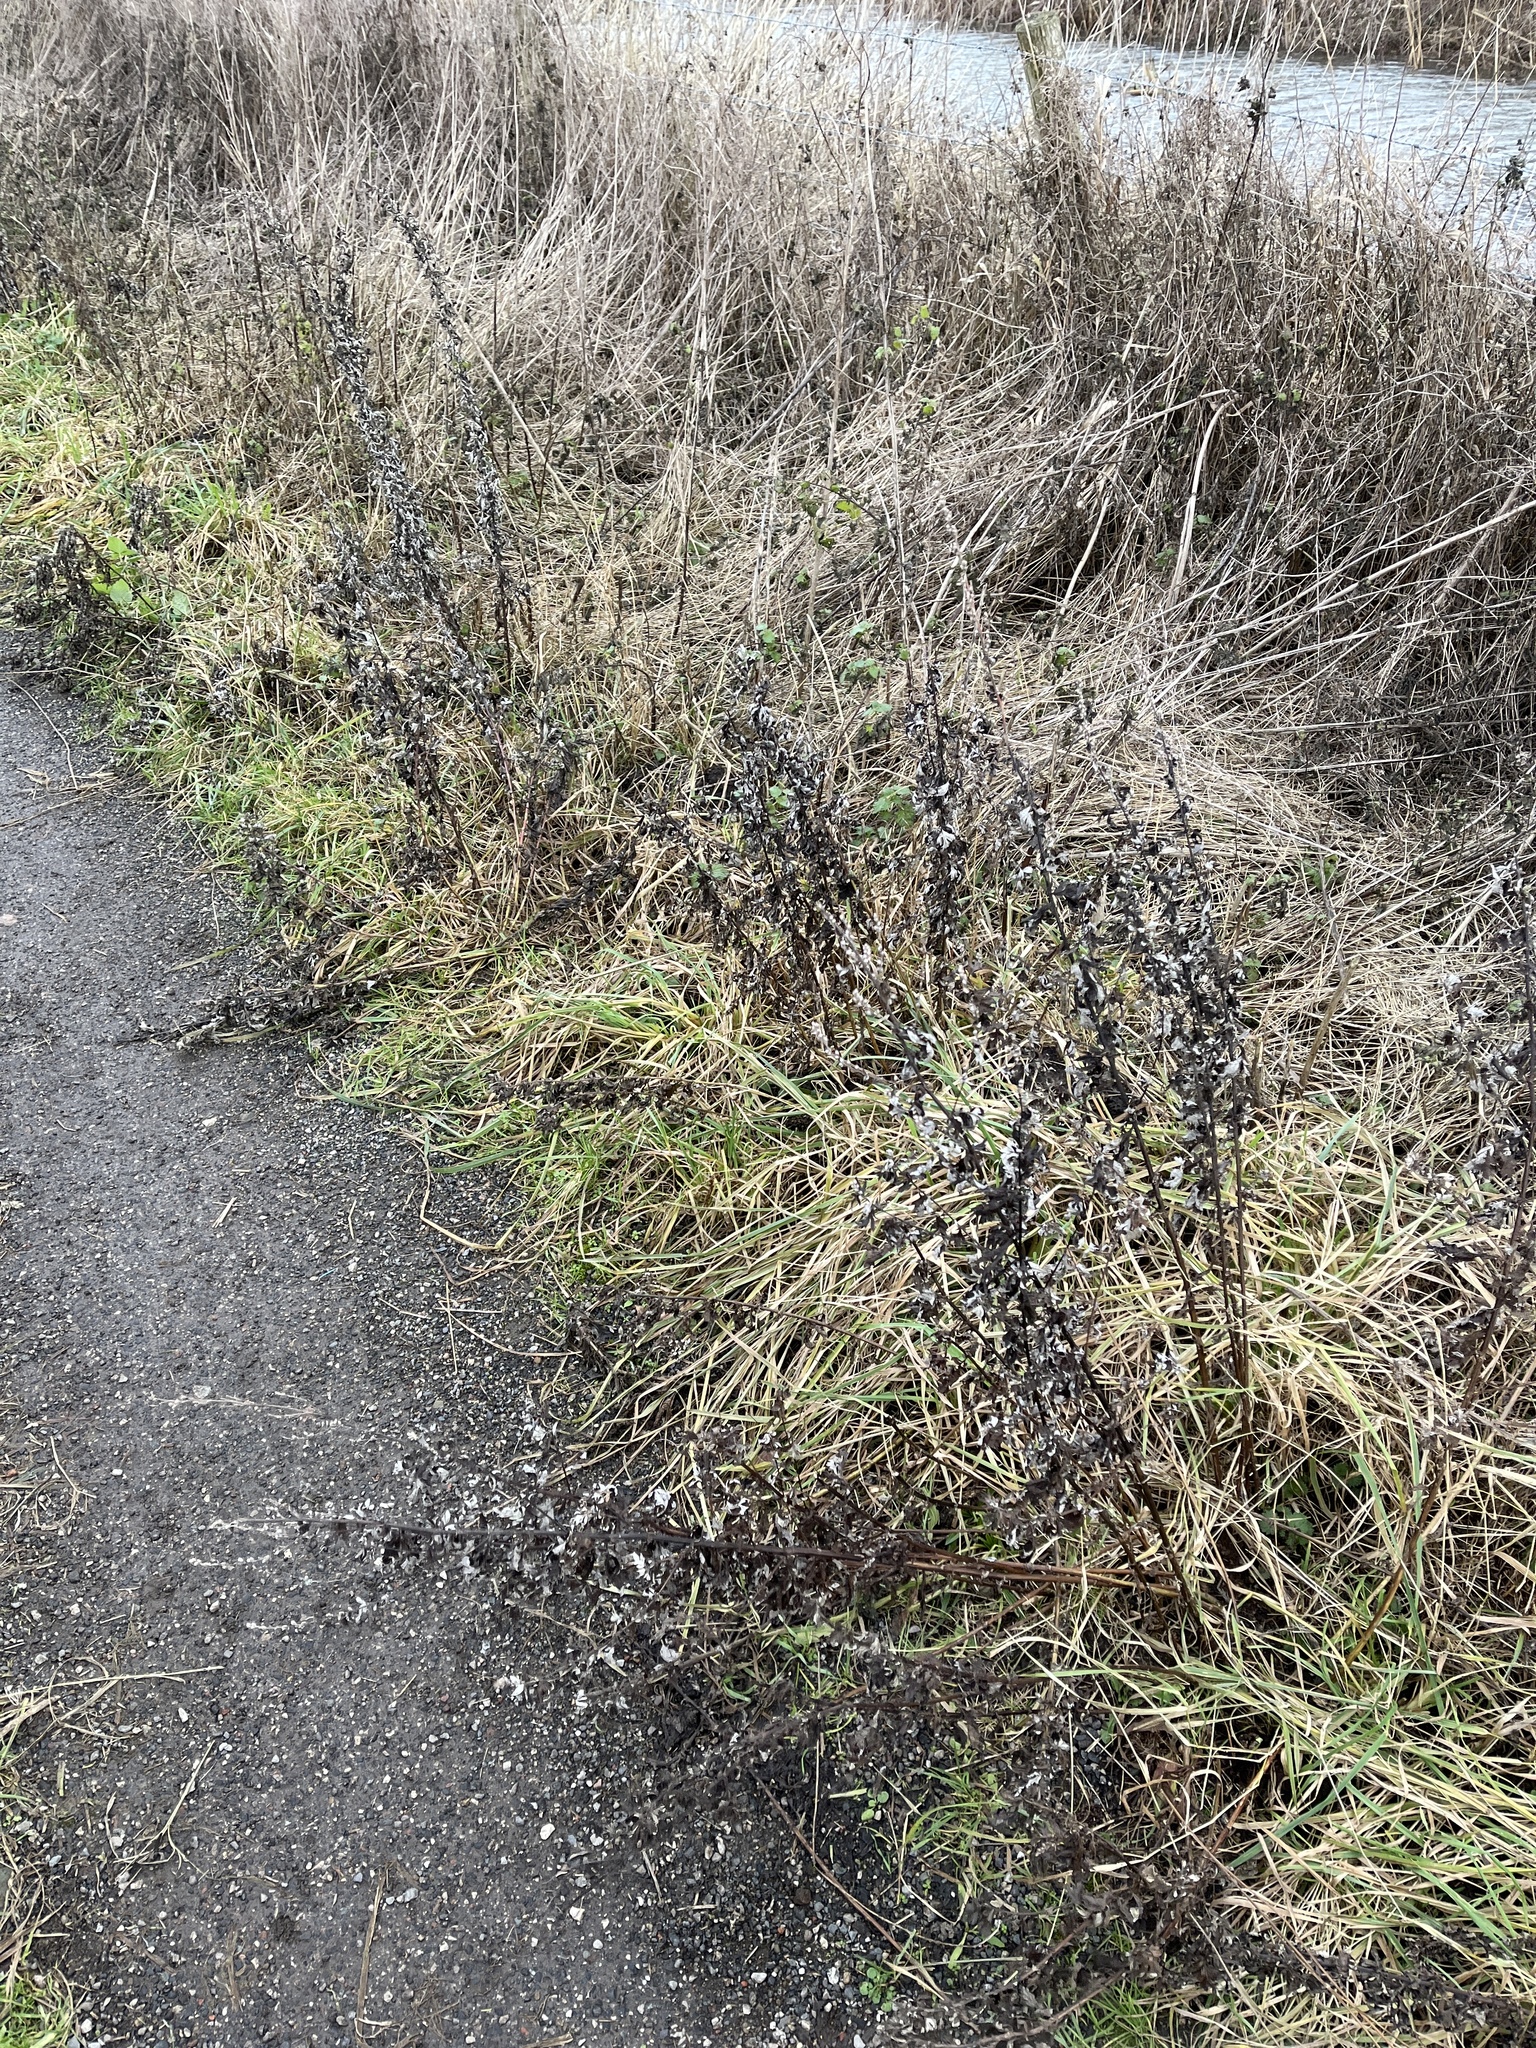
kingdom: Plantae
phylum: Tracheophyta
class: Magnoliopsida
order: Asterales
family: Asteraceae
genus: Artemisia
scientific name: Artemisia vulgaris
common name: Mugwort
